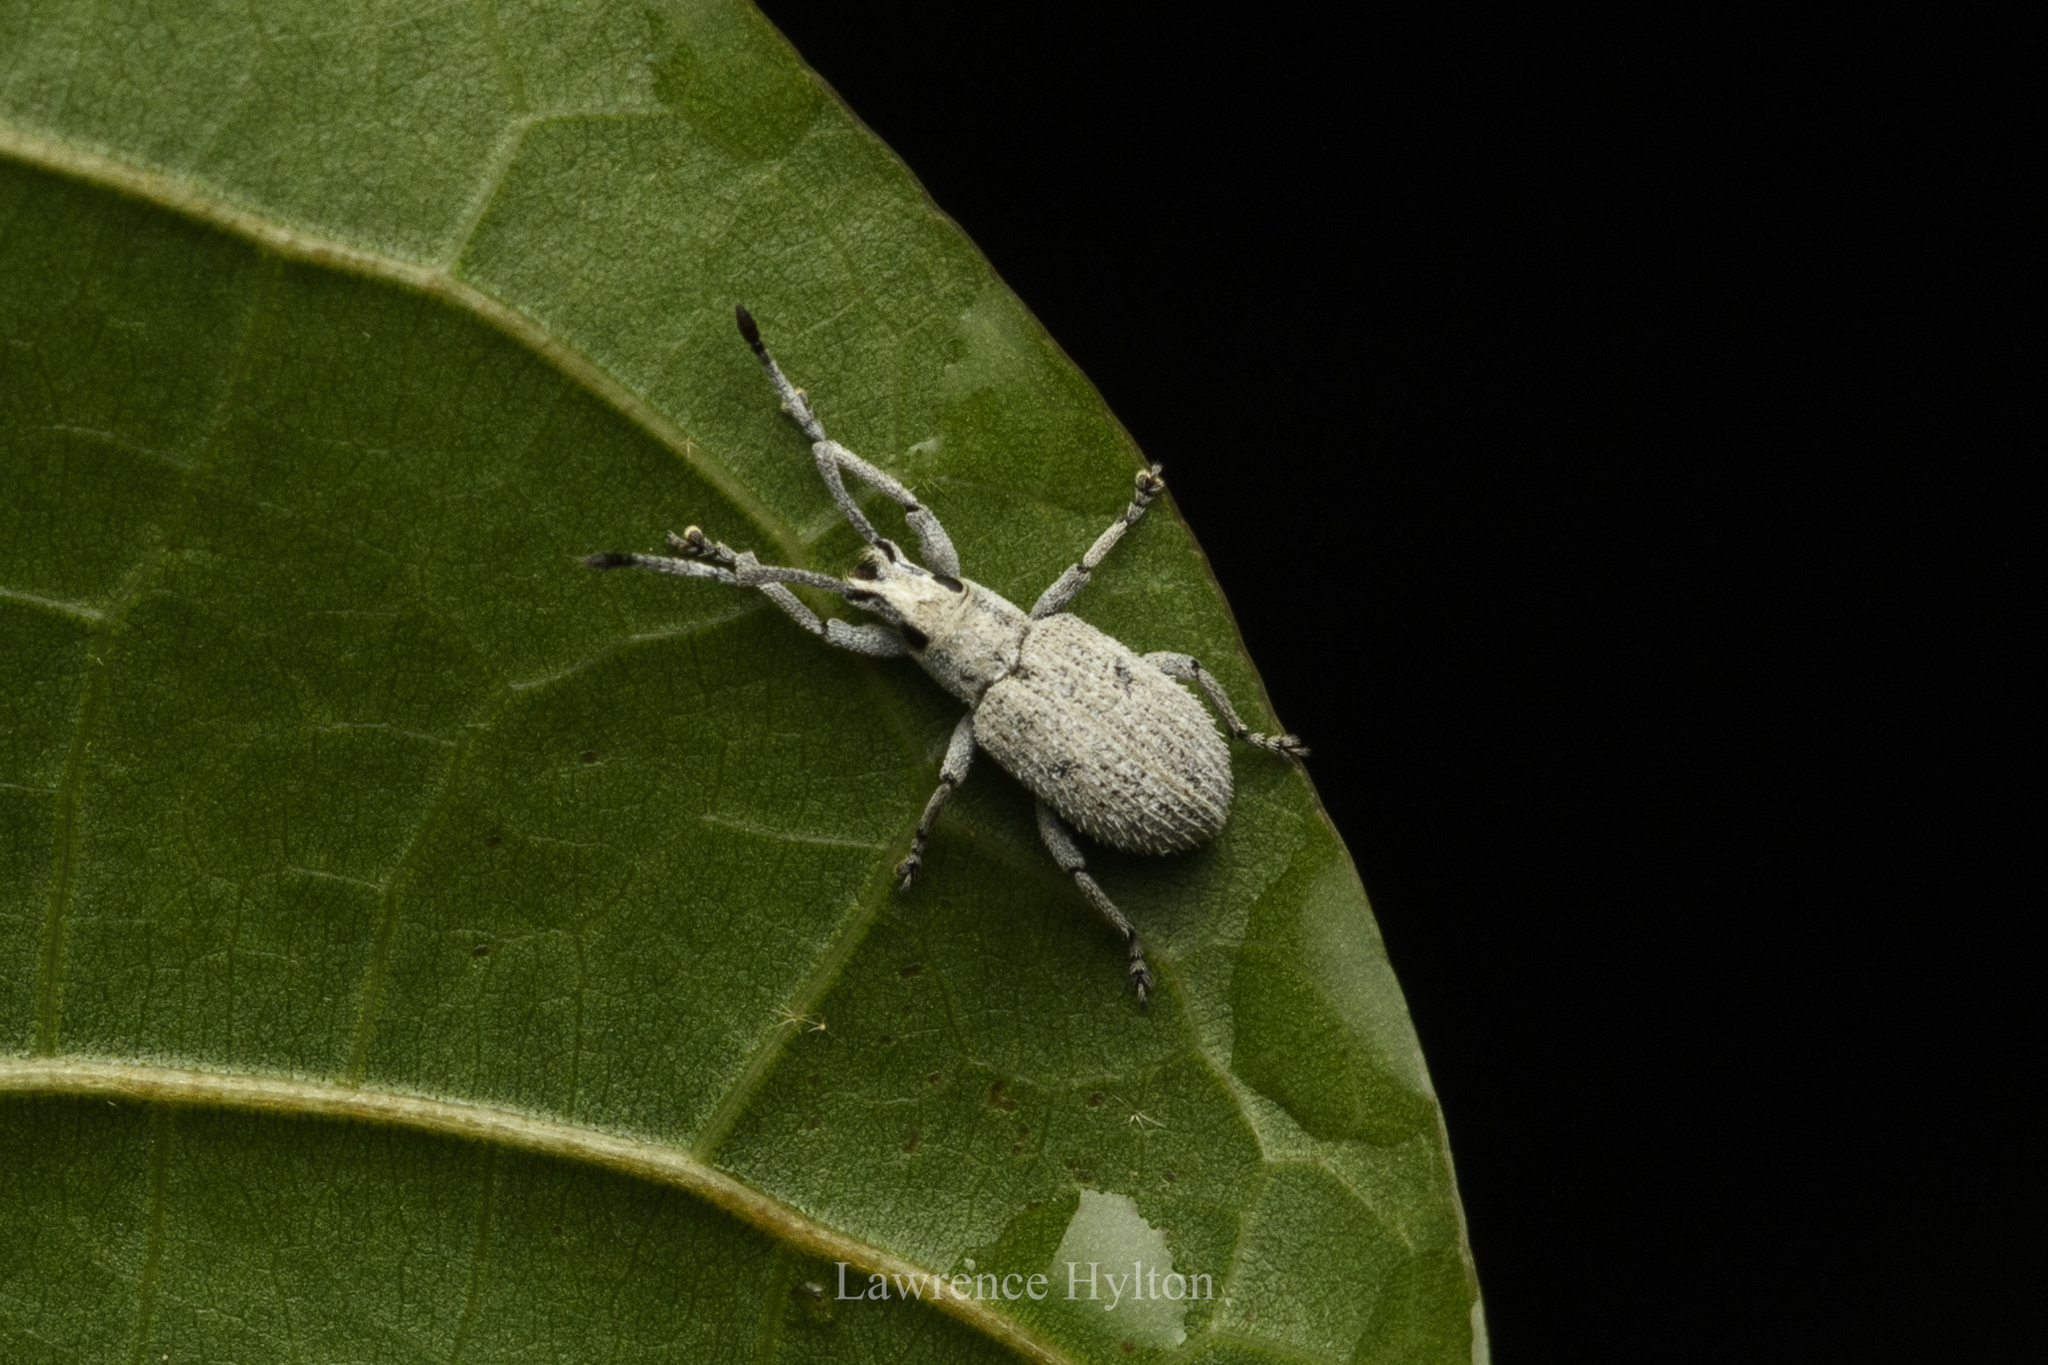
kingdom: Animalia
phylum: Arthropoda
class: Insecta
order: Coleoptera
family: Curculionidae
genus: Phrixopogon
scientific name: Phrixopogon vicinus
